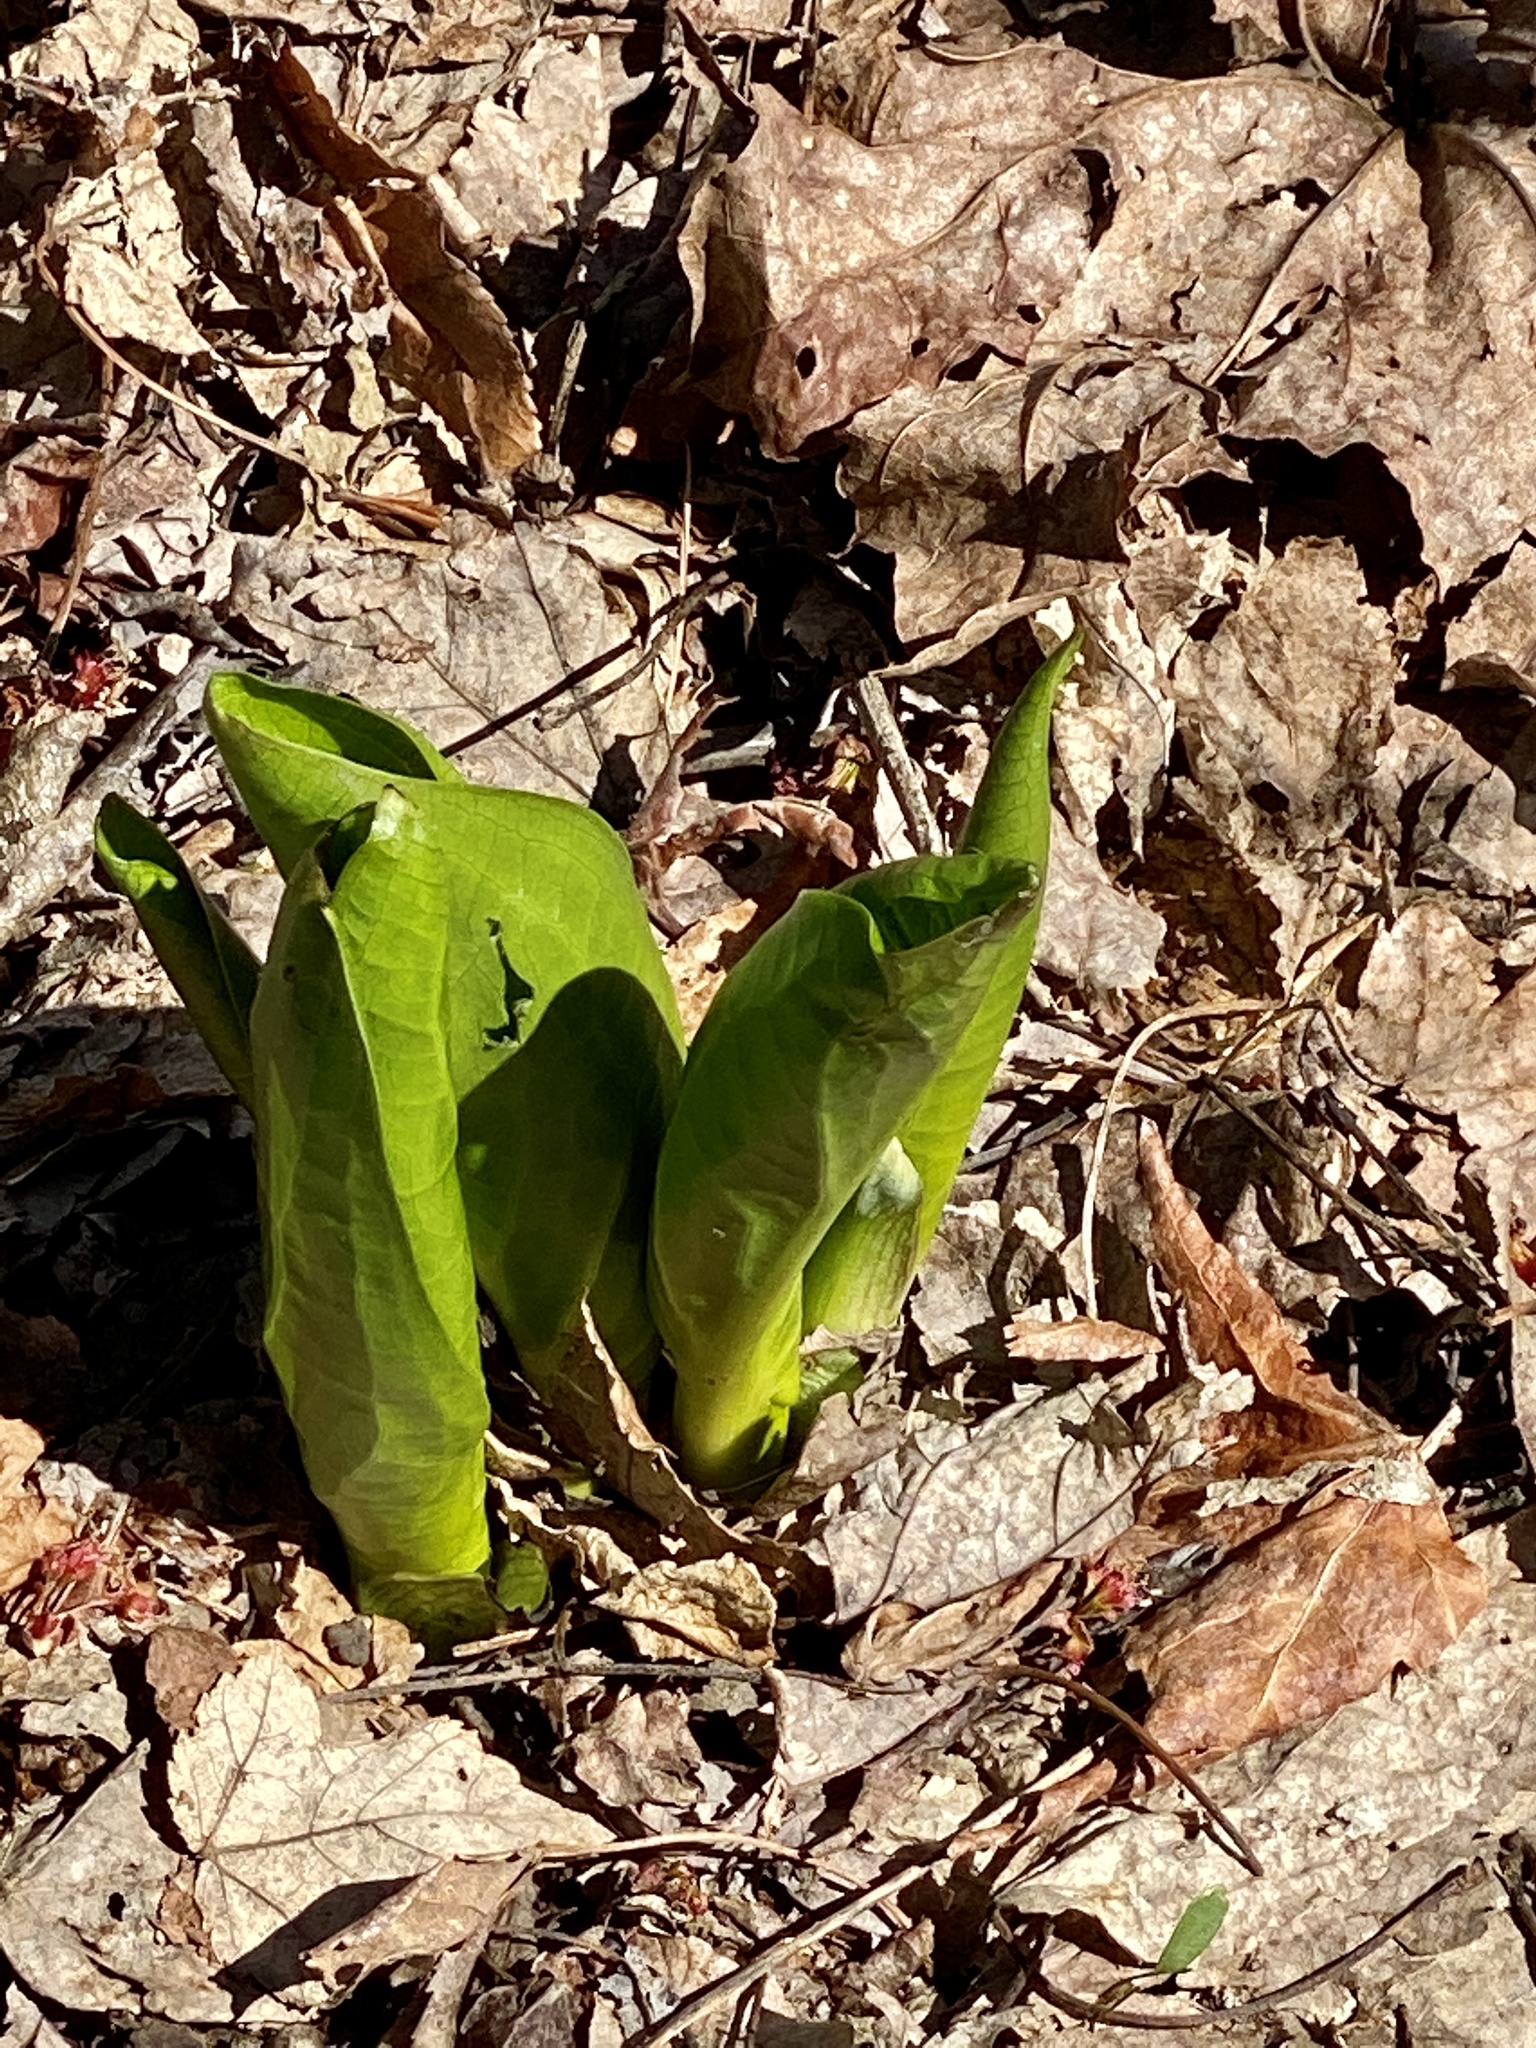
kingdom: Plantae
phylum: Tracheophyta
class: Liliopsida
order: Alismatales
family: Araceae
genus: Symplocarpus
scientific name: Symplocarpus foetidus
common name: Eastern skunk cabbage
